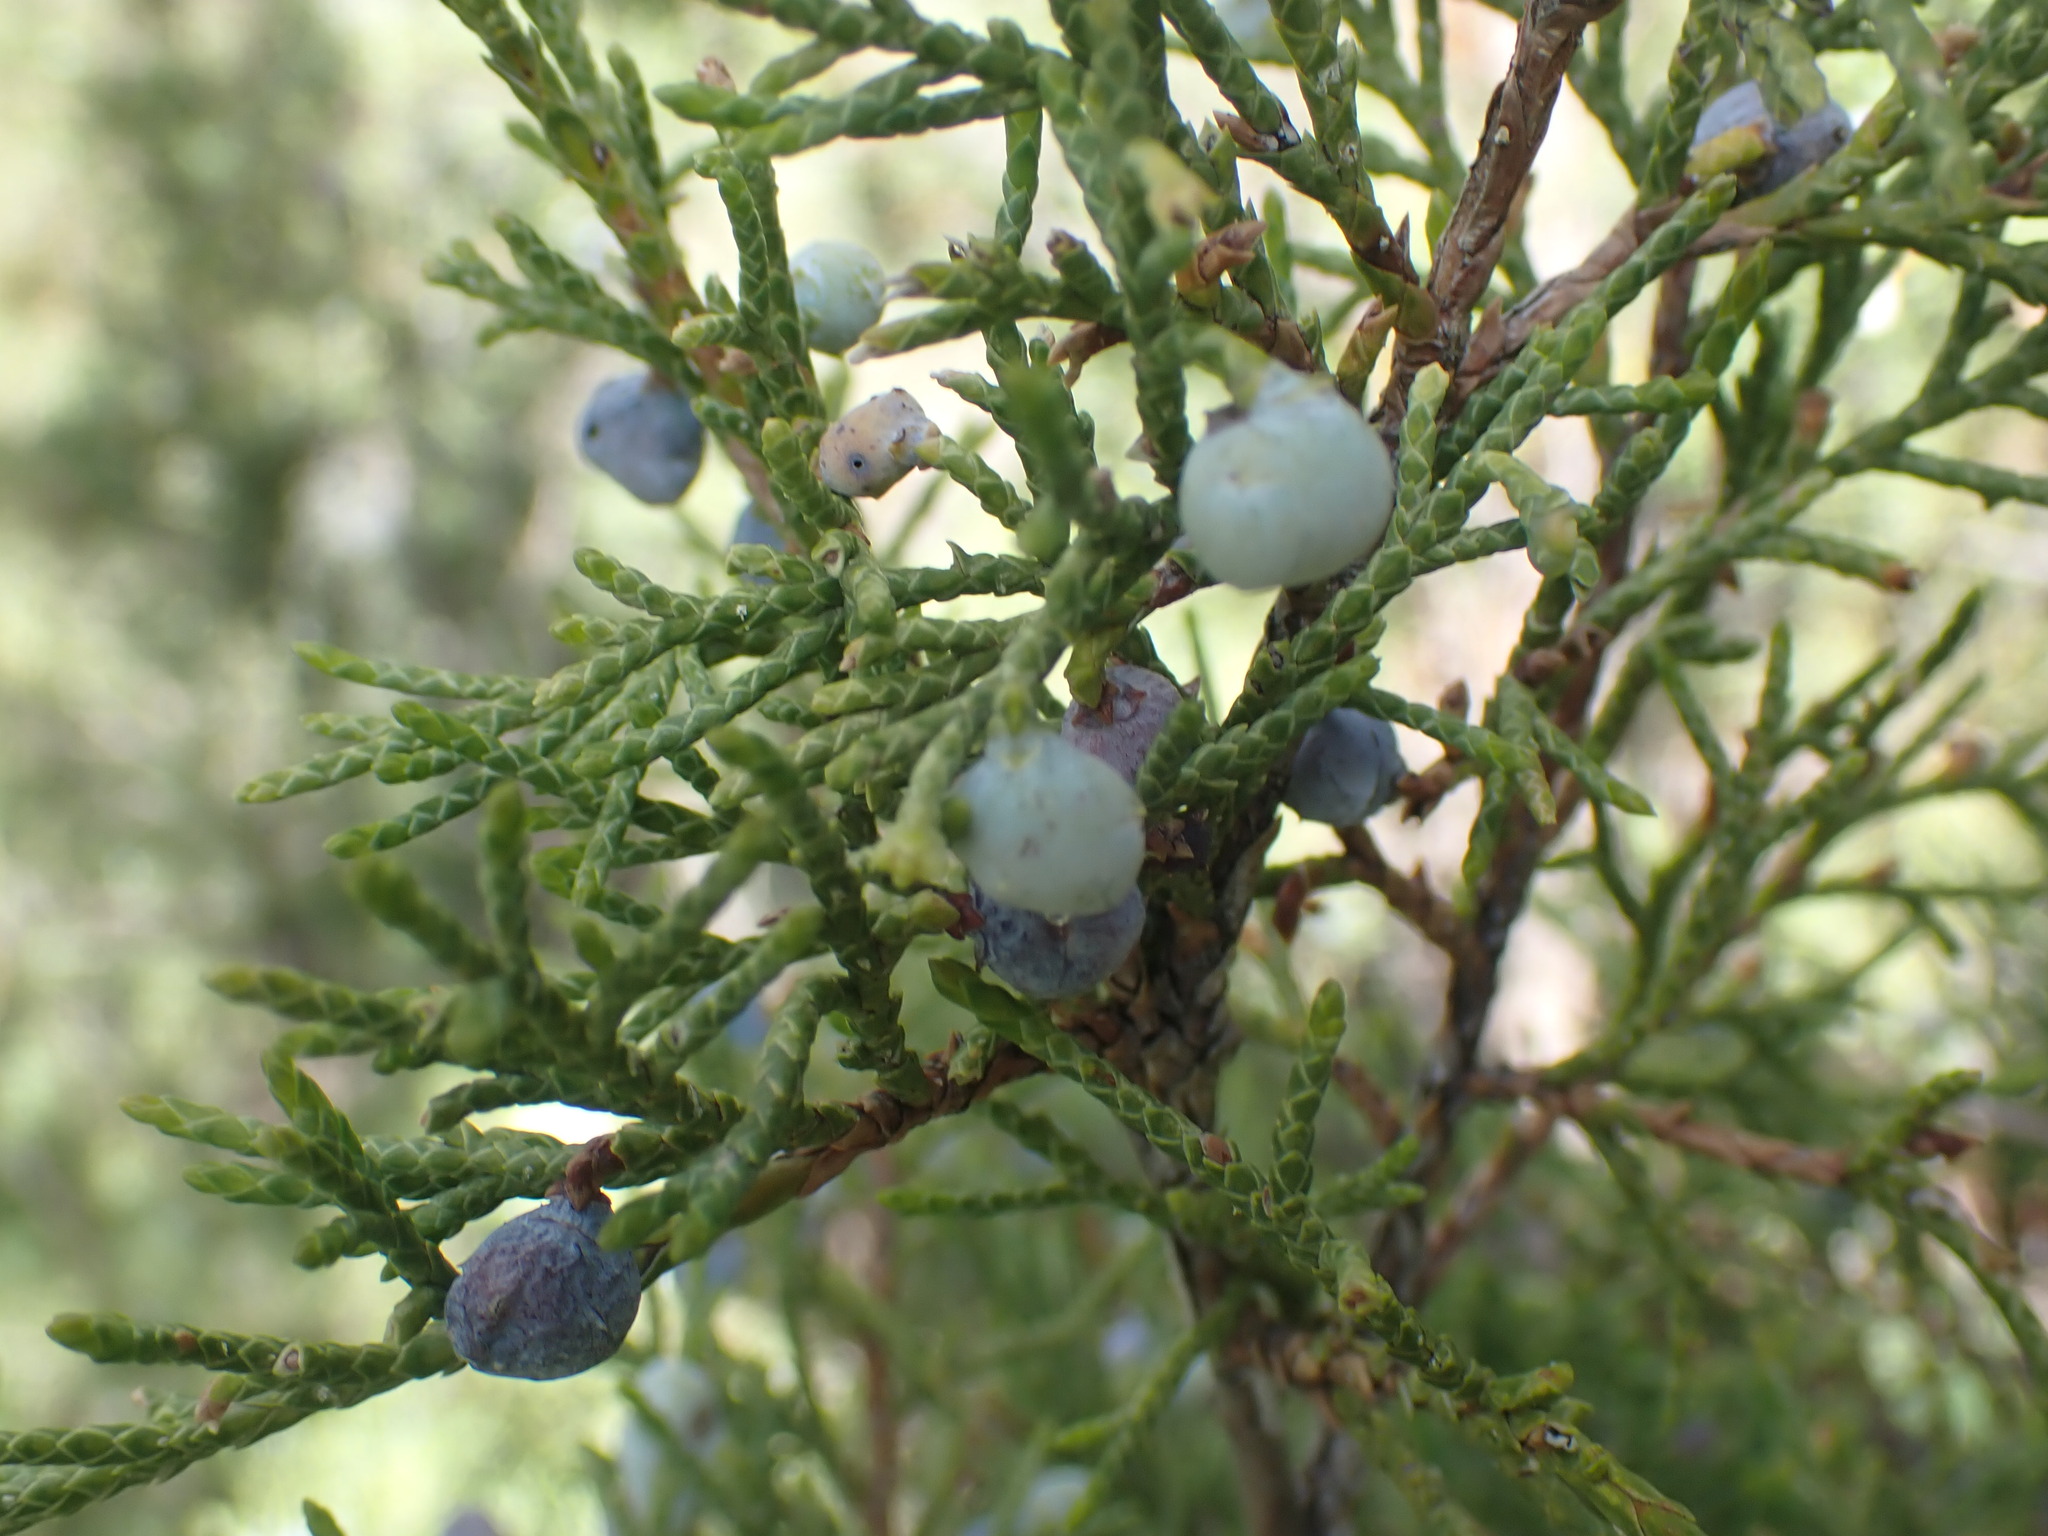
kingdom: Plantae
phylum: Tracheophyta
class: Pinopsida
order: Pinales
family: Cupressaceae
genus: Juniperus
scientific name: Juniperus scopulorum
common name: Rocky mountain juniper
